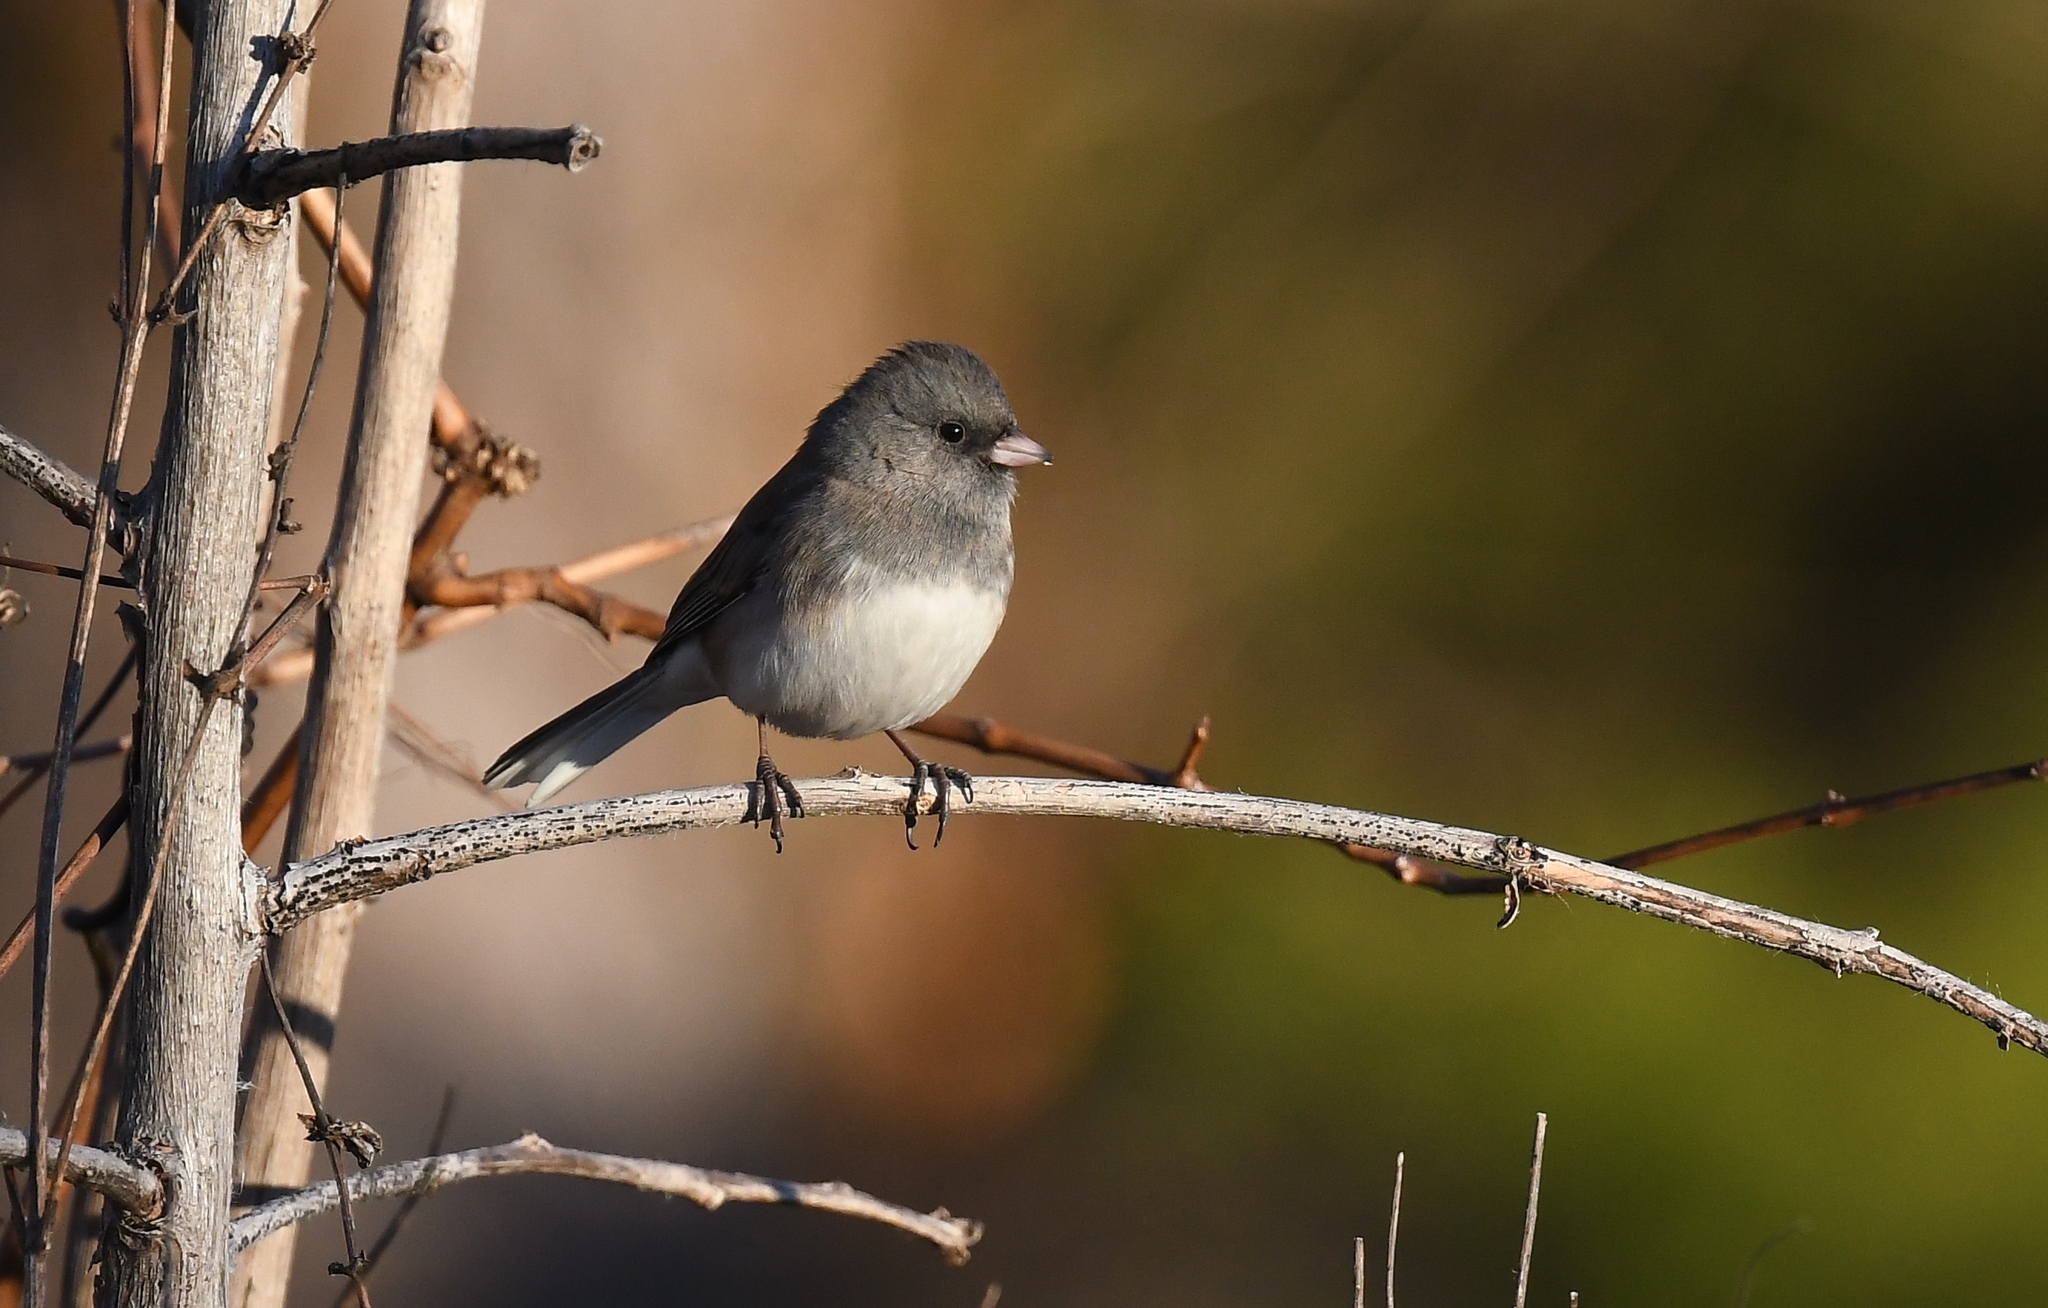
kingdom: Animalia
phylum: Chordata
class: Aves
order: Passeriformes
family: Passerellidae
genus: Junco
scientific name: Junco hyemalis
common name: Dark-eyed junco
